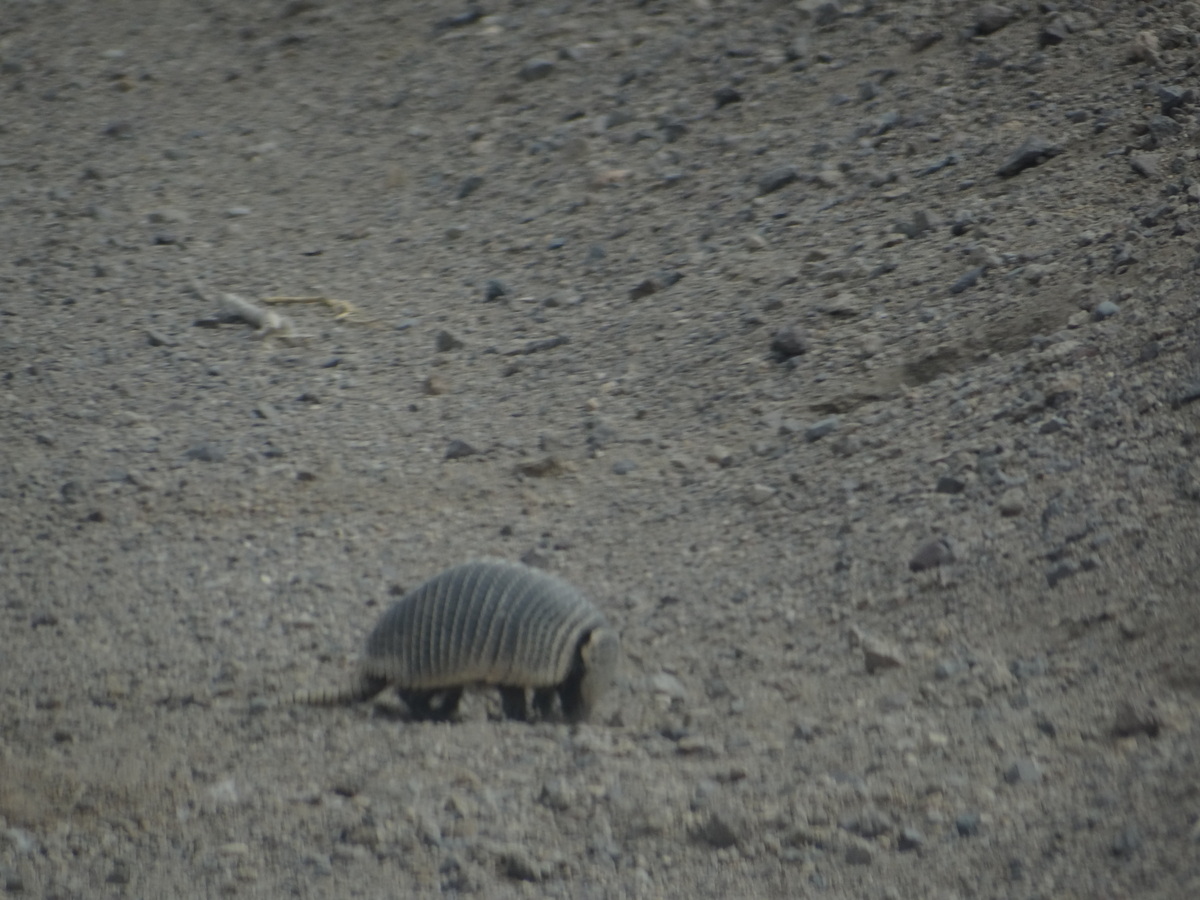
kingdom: Animalia
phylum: Chordata
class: Mammalia
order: Cingulata
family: Dasypodidae
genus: Zaedyus
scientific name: Zaedyus pichiy
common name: Pichi
